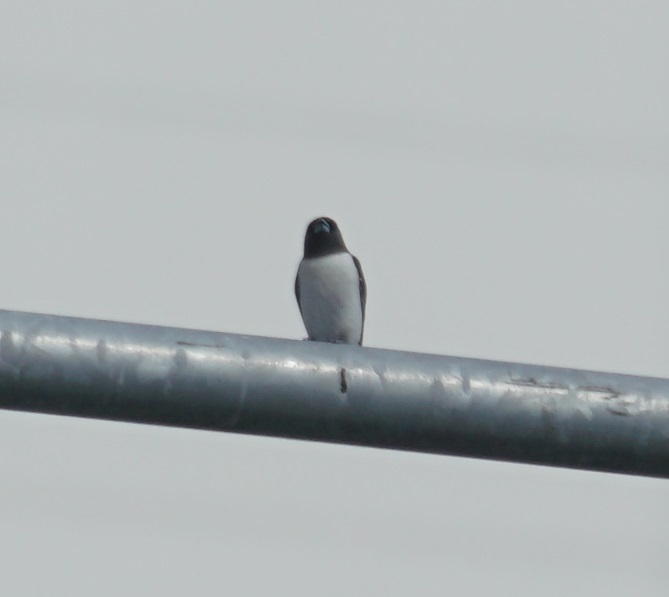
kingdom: Animalia
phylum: Chordata
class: Aves
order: Passeriformes
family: Artamidae
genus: Artamus
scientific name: Artamus leucoryn
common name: White-breasted woodswallow
